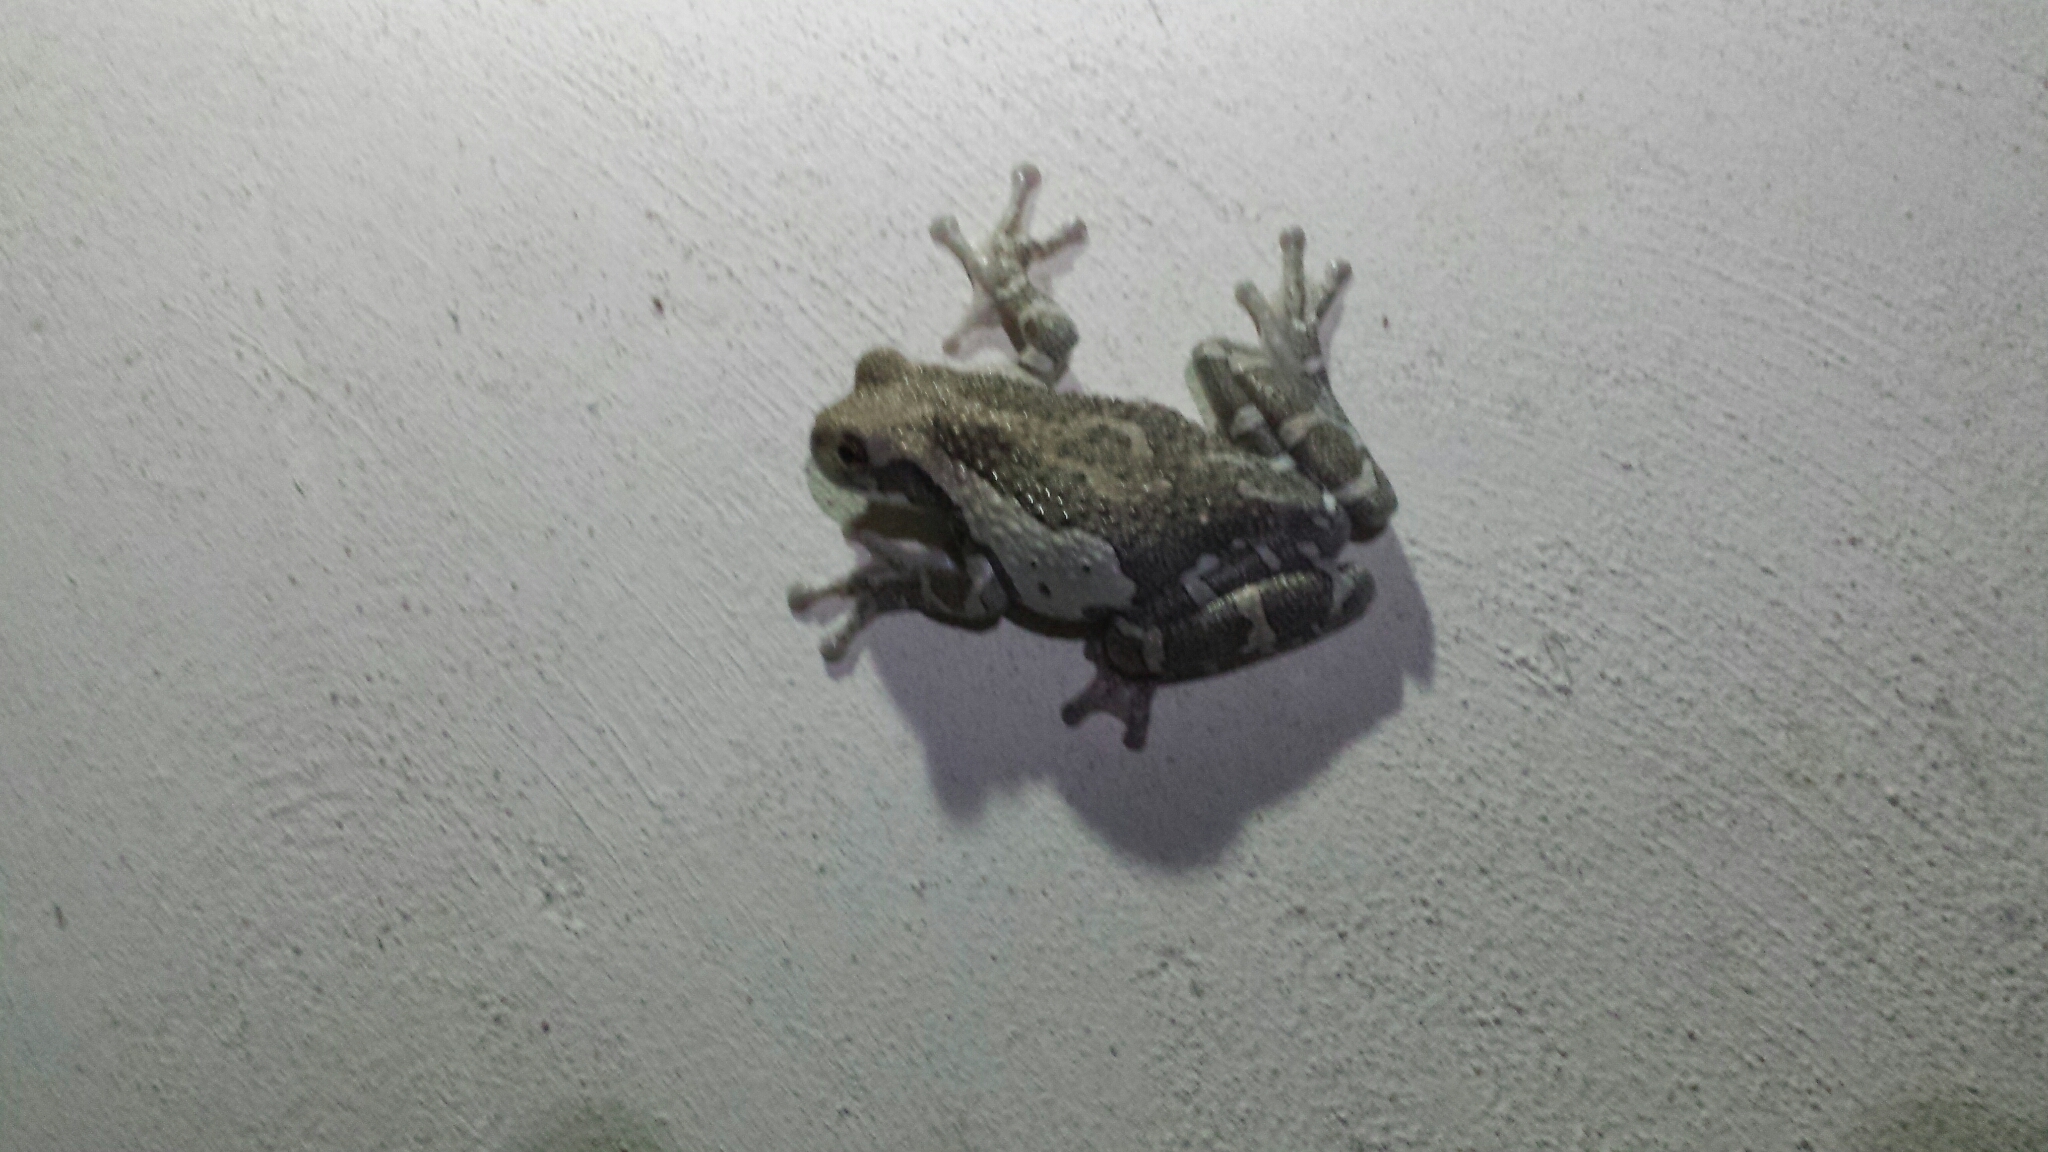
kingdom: Animalia
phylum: Chordata
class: Amphibia
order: Anura
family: Hylidae
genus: Trachycephalus
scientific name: Trachycephalus vermiculatus
